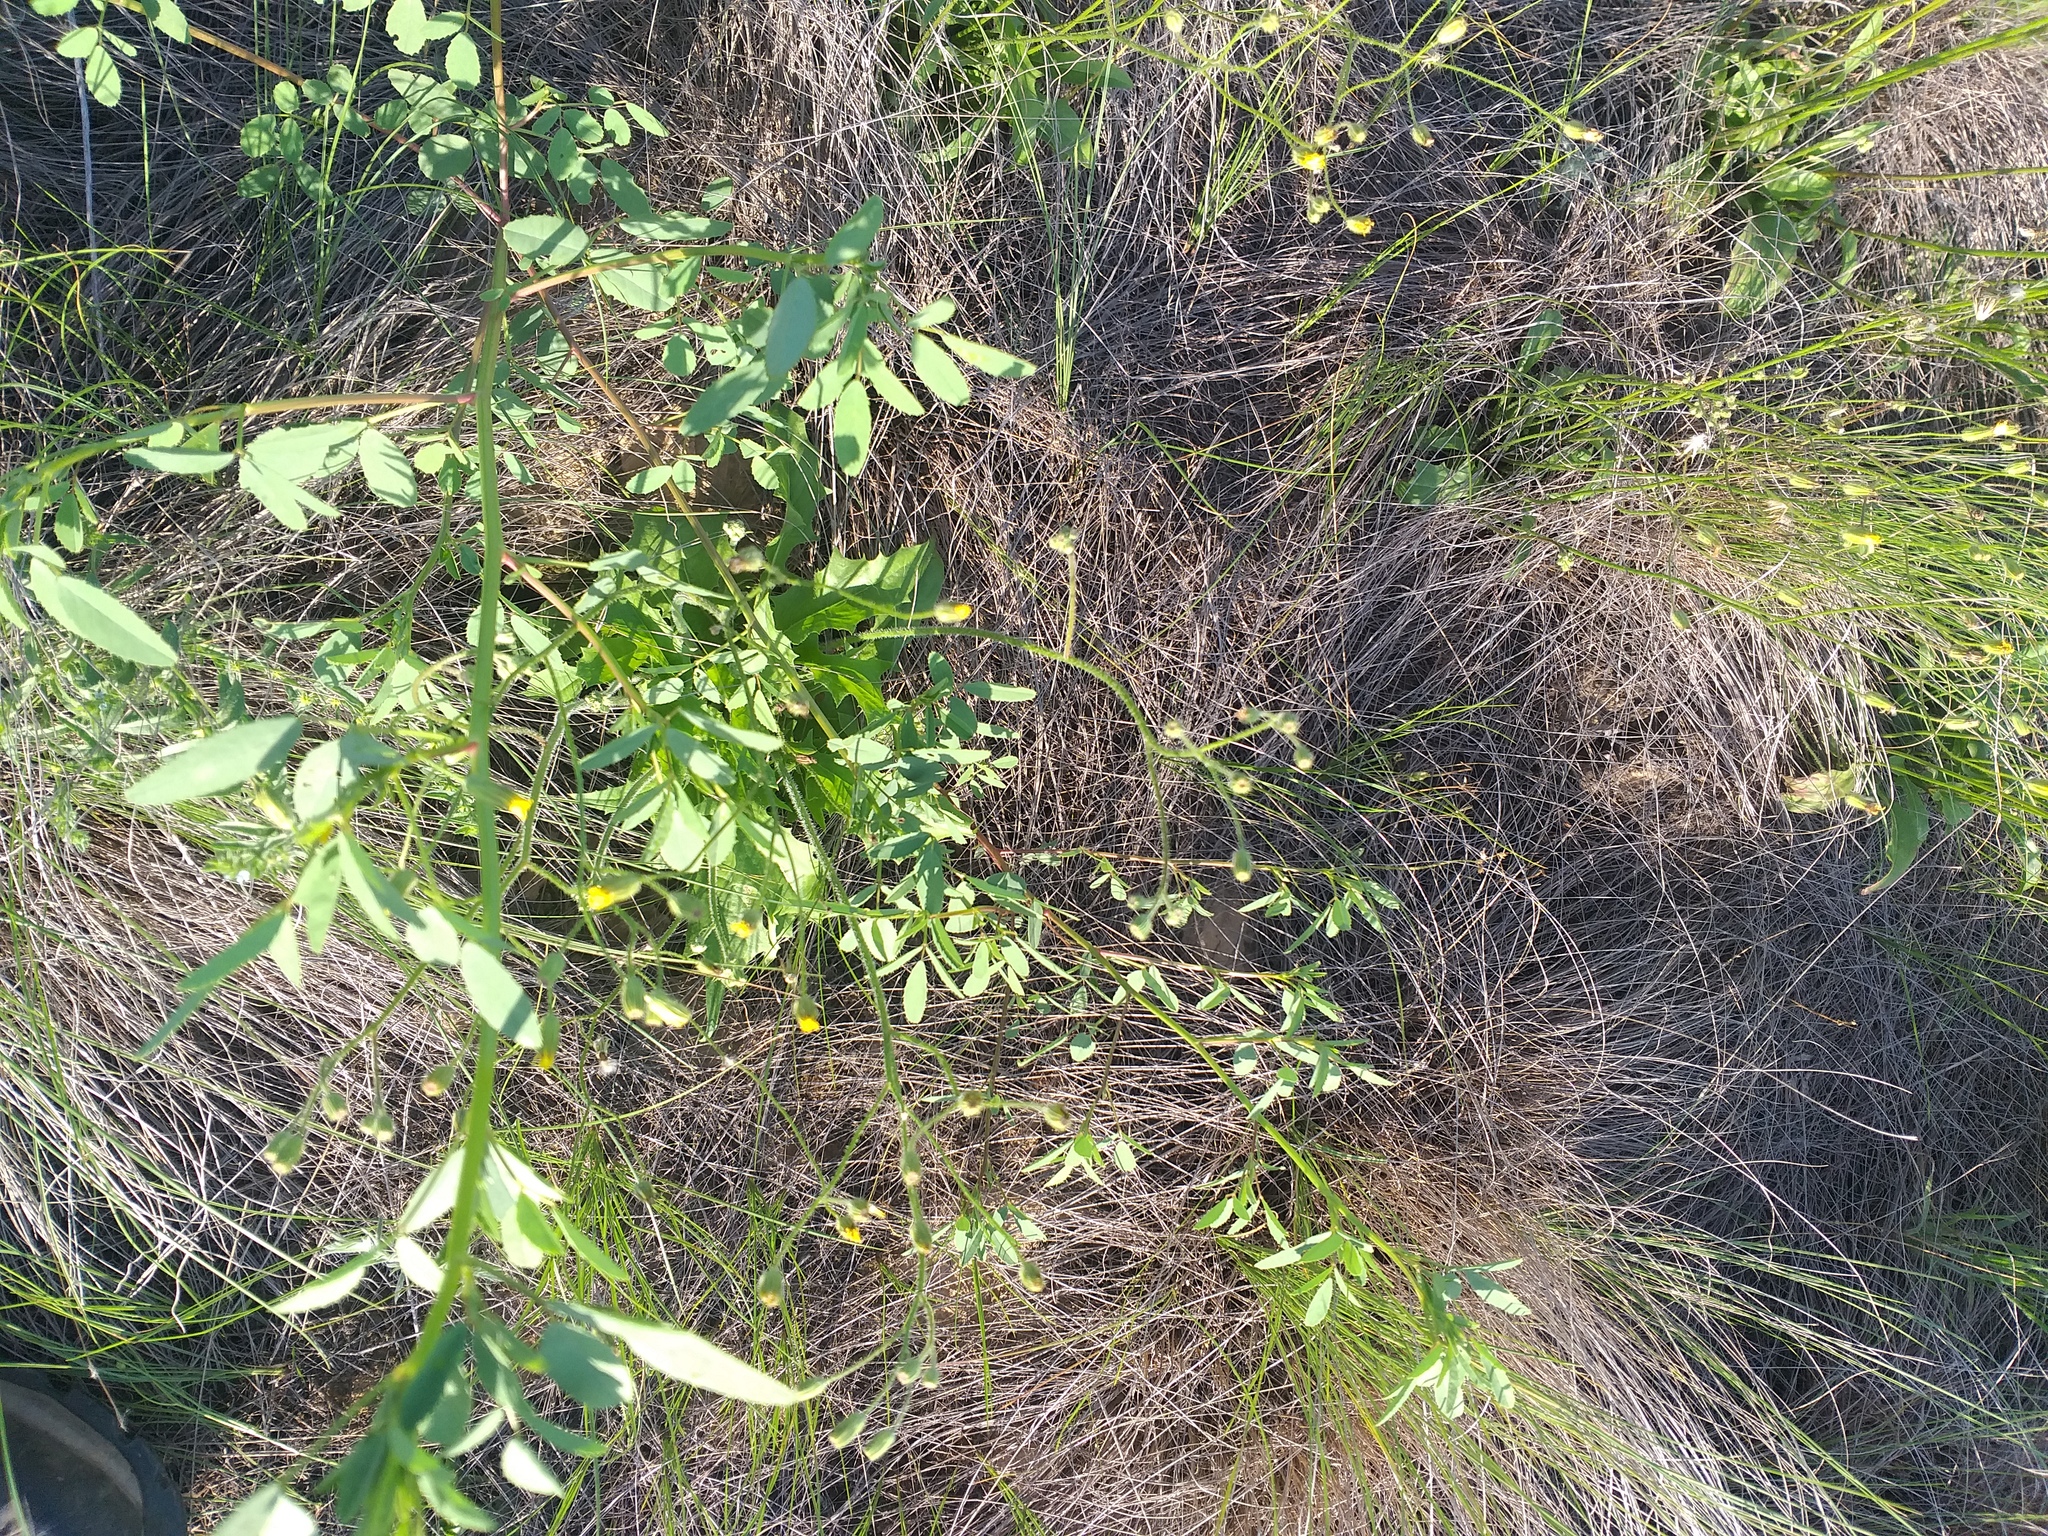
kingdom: Plantae
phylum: Tracheophyta
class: Magnoliopsida
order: Asterales
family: Asteraceae
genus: Crepis
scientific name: Crepis sancta
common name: Hawk's-beard
